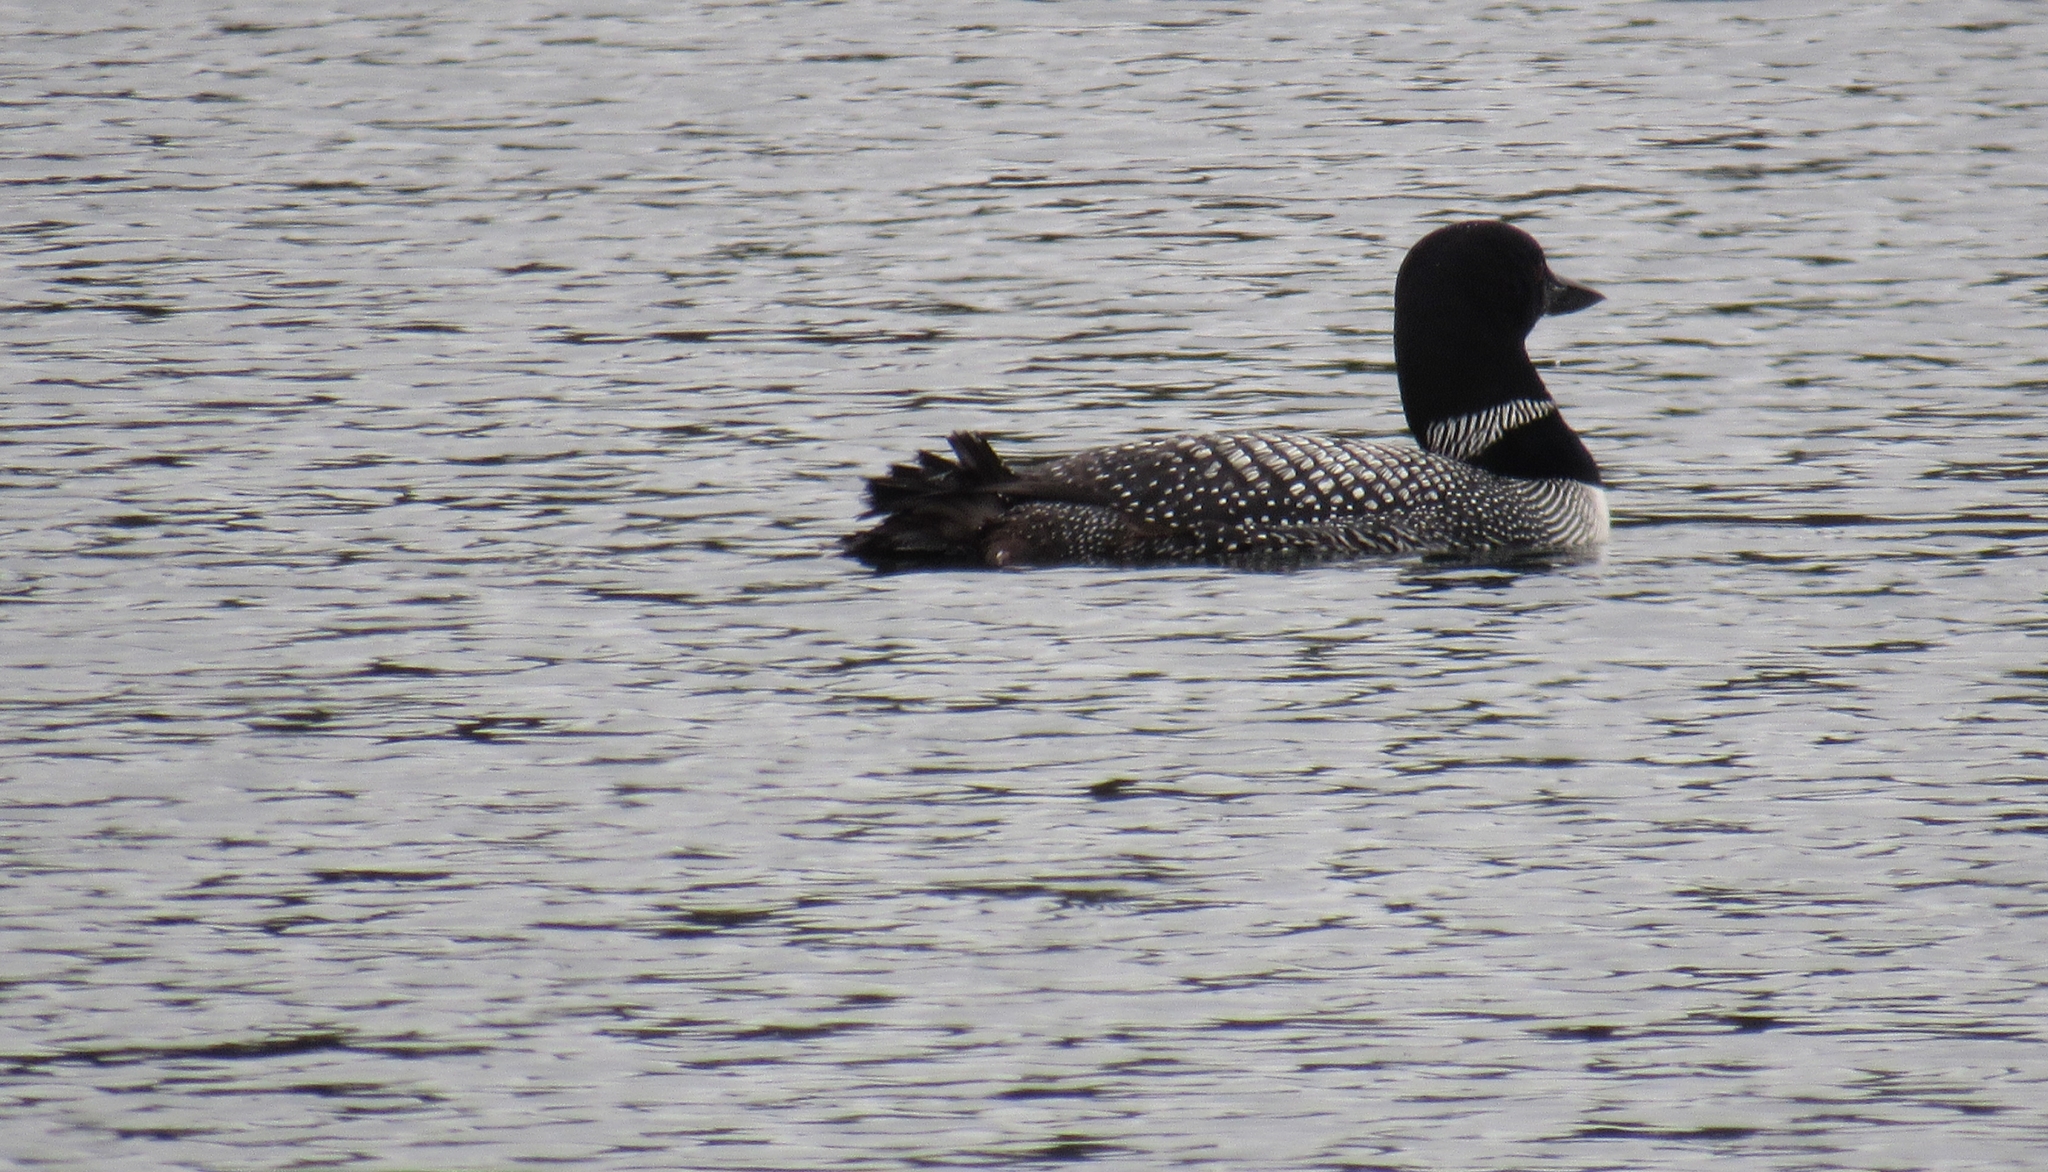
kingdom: Animalia
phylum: Chordata
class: Aves
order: Gaviiformes
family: Gaviidae
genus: Gavia
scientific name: Gavia immer
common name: Common loon
